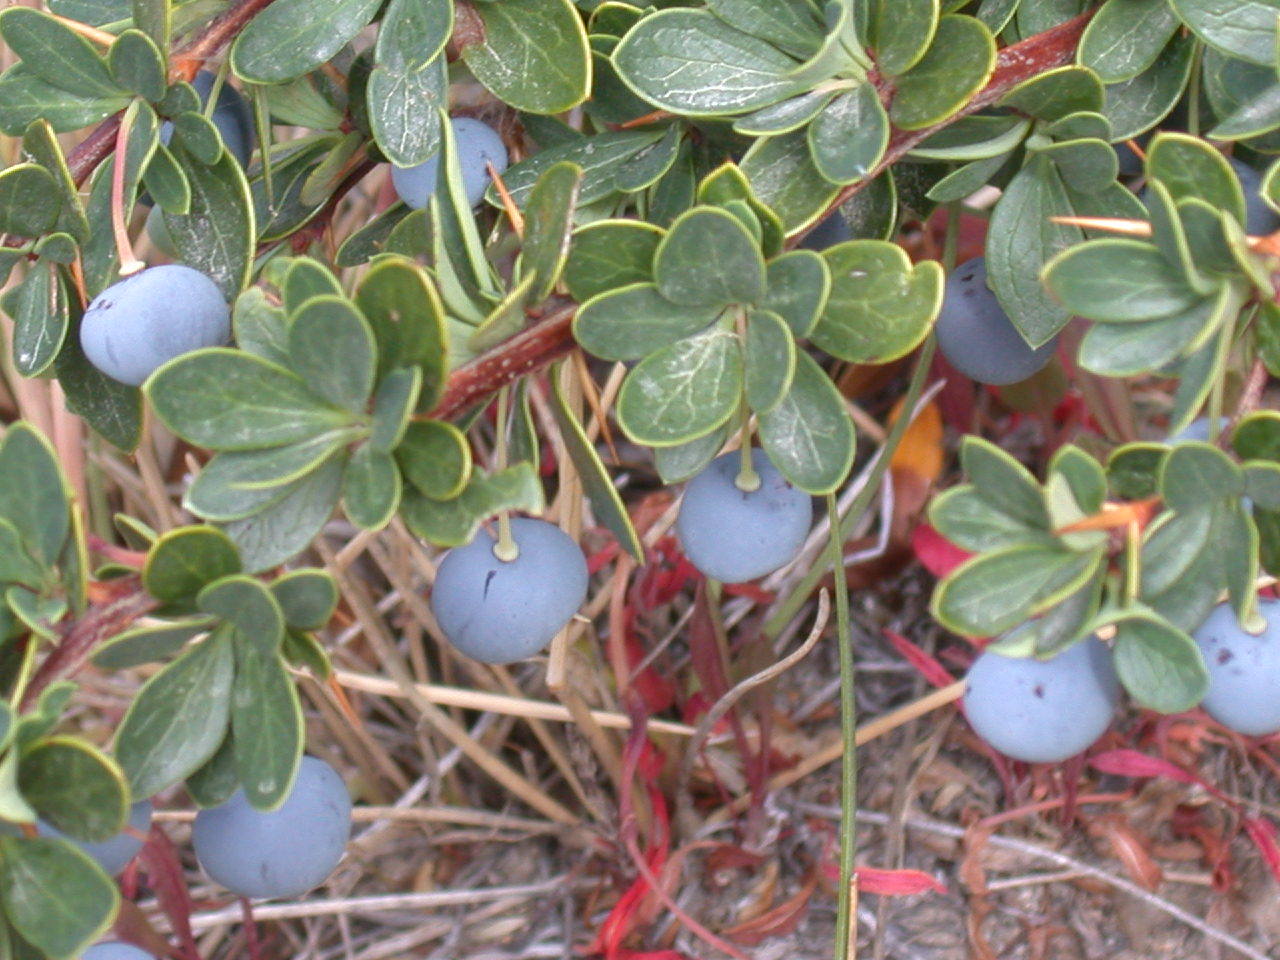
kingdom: Plantae
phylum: Tracheophyta
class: Magnoliopsida
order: Ranunculales
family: Berberidaceae
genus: Berberis
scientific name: Berberis microphylla
